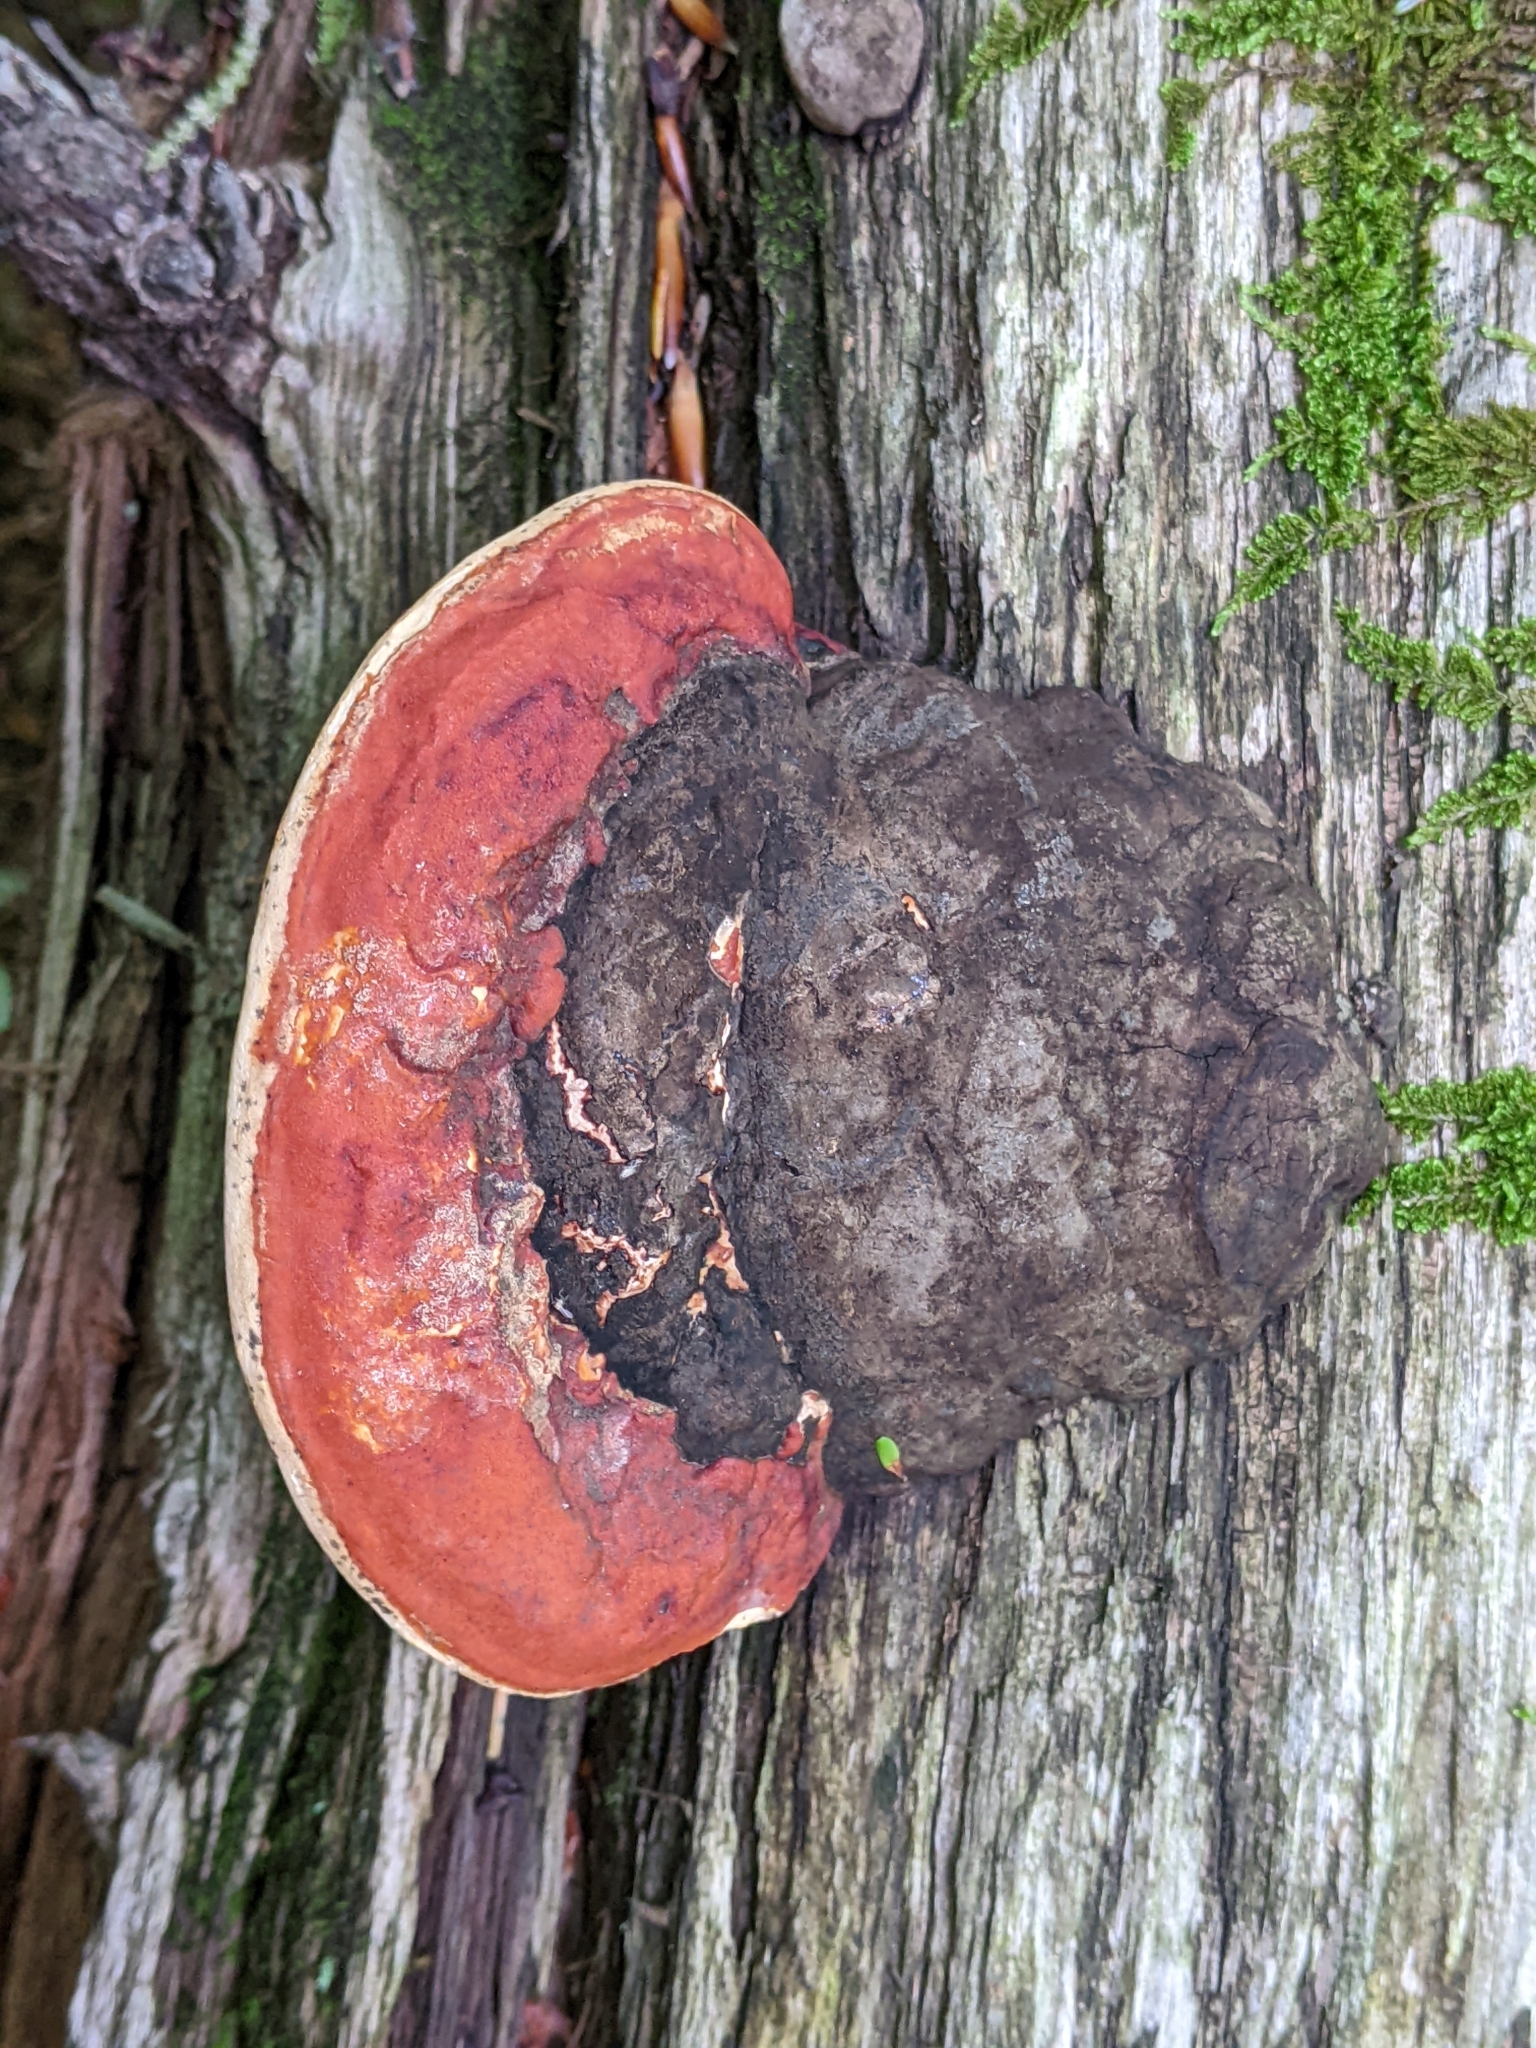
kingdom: Fungi
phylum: Basidiomycota
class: Agaricomycetes
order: Polyporales
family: Fomitopsidaceae
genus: Fomitopsis
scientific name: Fomitopsis mounceae
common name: Northern red belt
